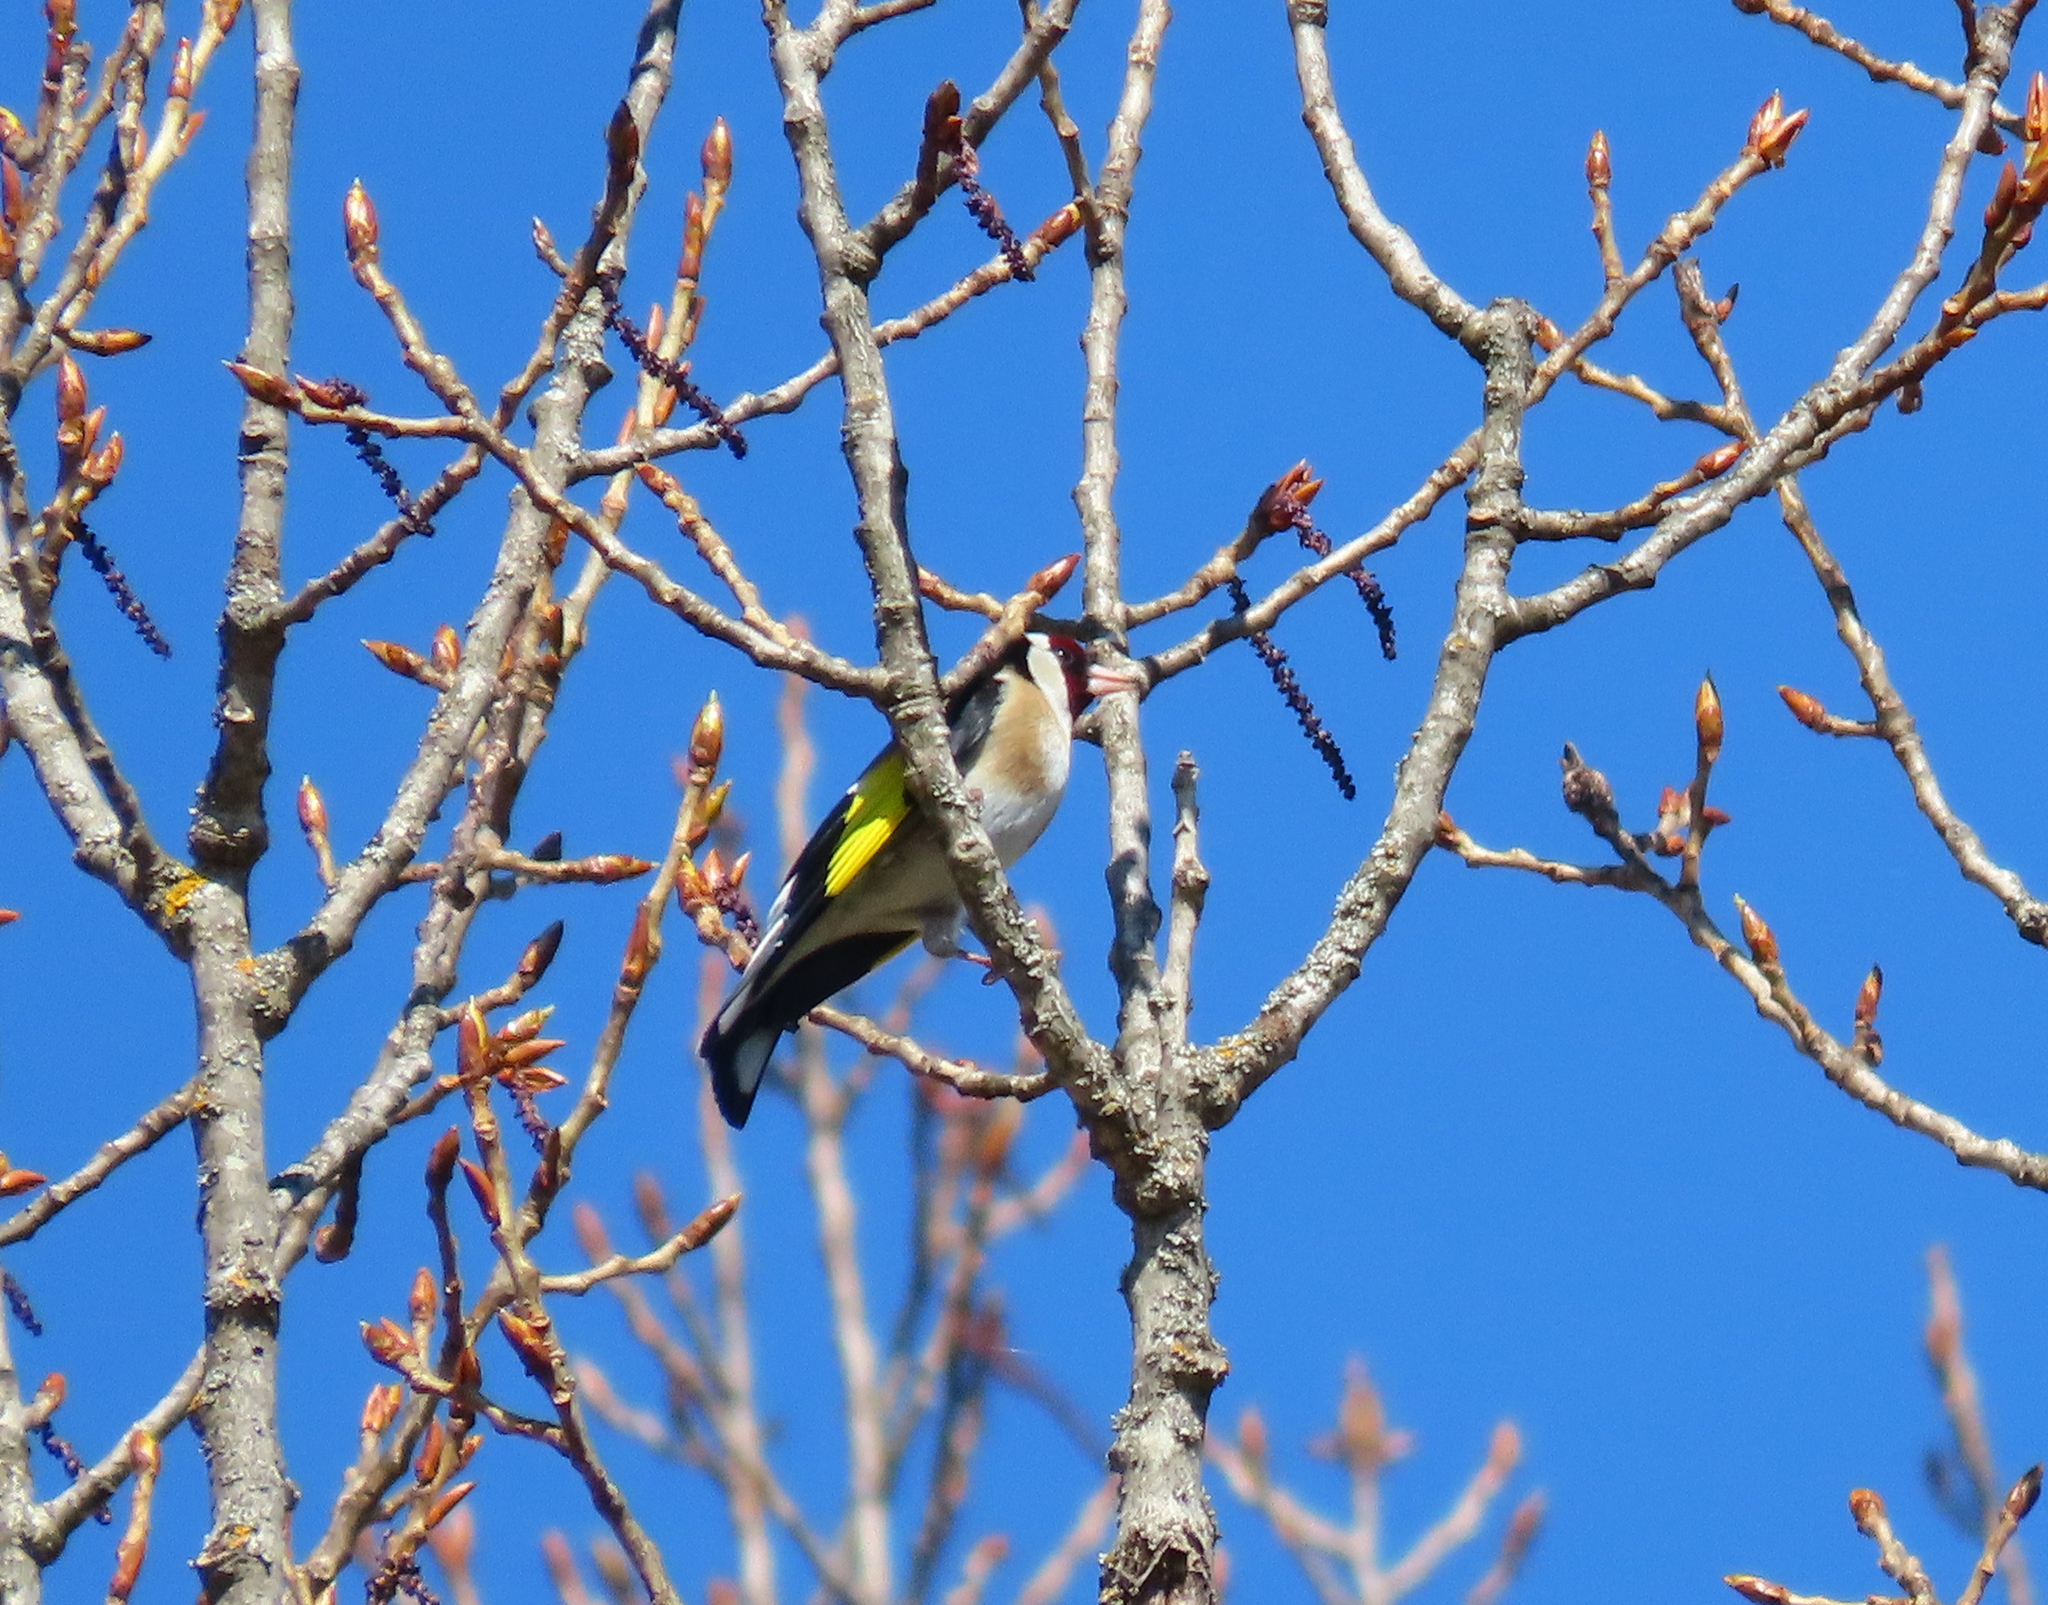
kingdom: Animalia
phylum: Chordata
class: Aves
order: Passeriformes
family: Fringillidae
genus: Carduelis
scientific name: Carduelis carduelis
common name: European goldfinch
